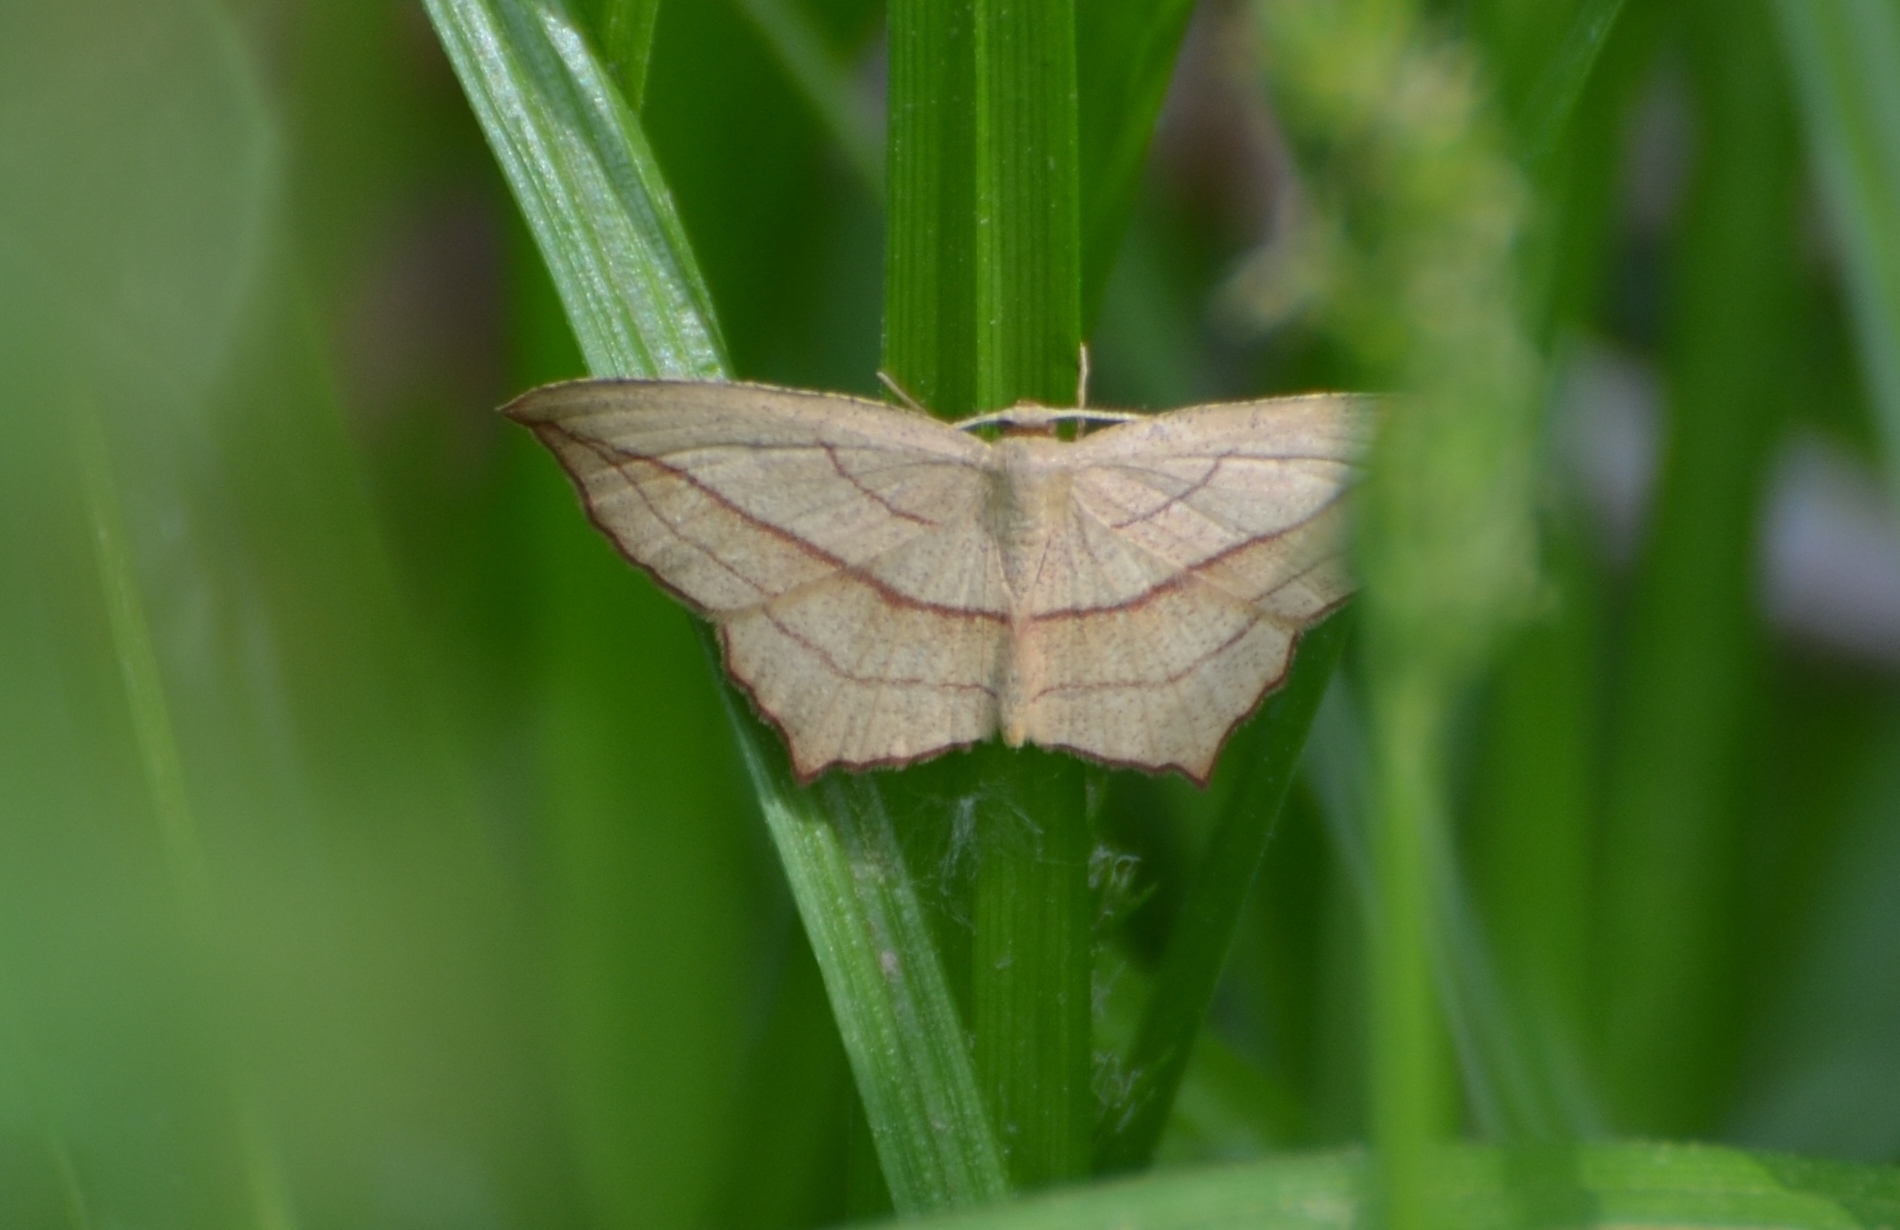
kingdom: Animalia
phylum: Arthropoda
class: Insecta
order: Lepidoptera
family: Geometridae
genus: Timandra
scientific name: Timandra amaturaria
